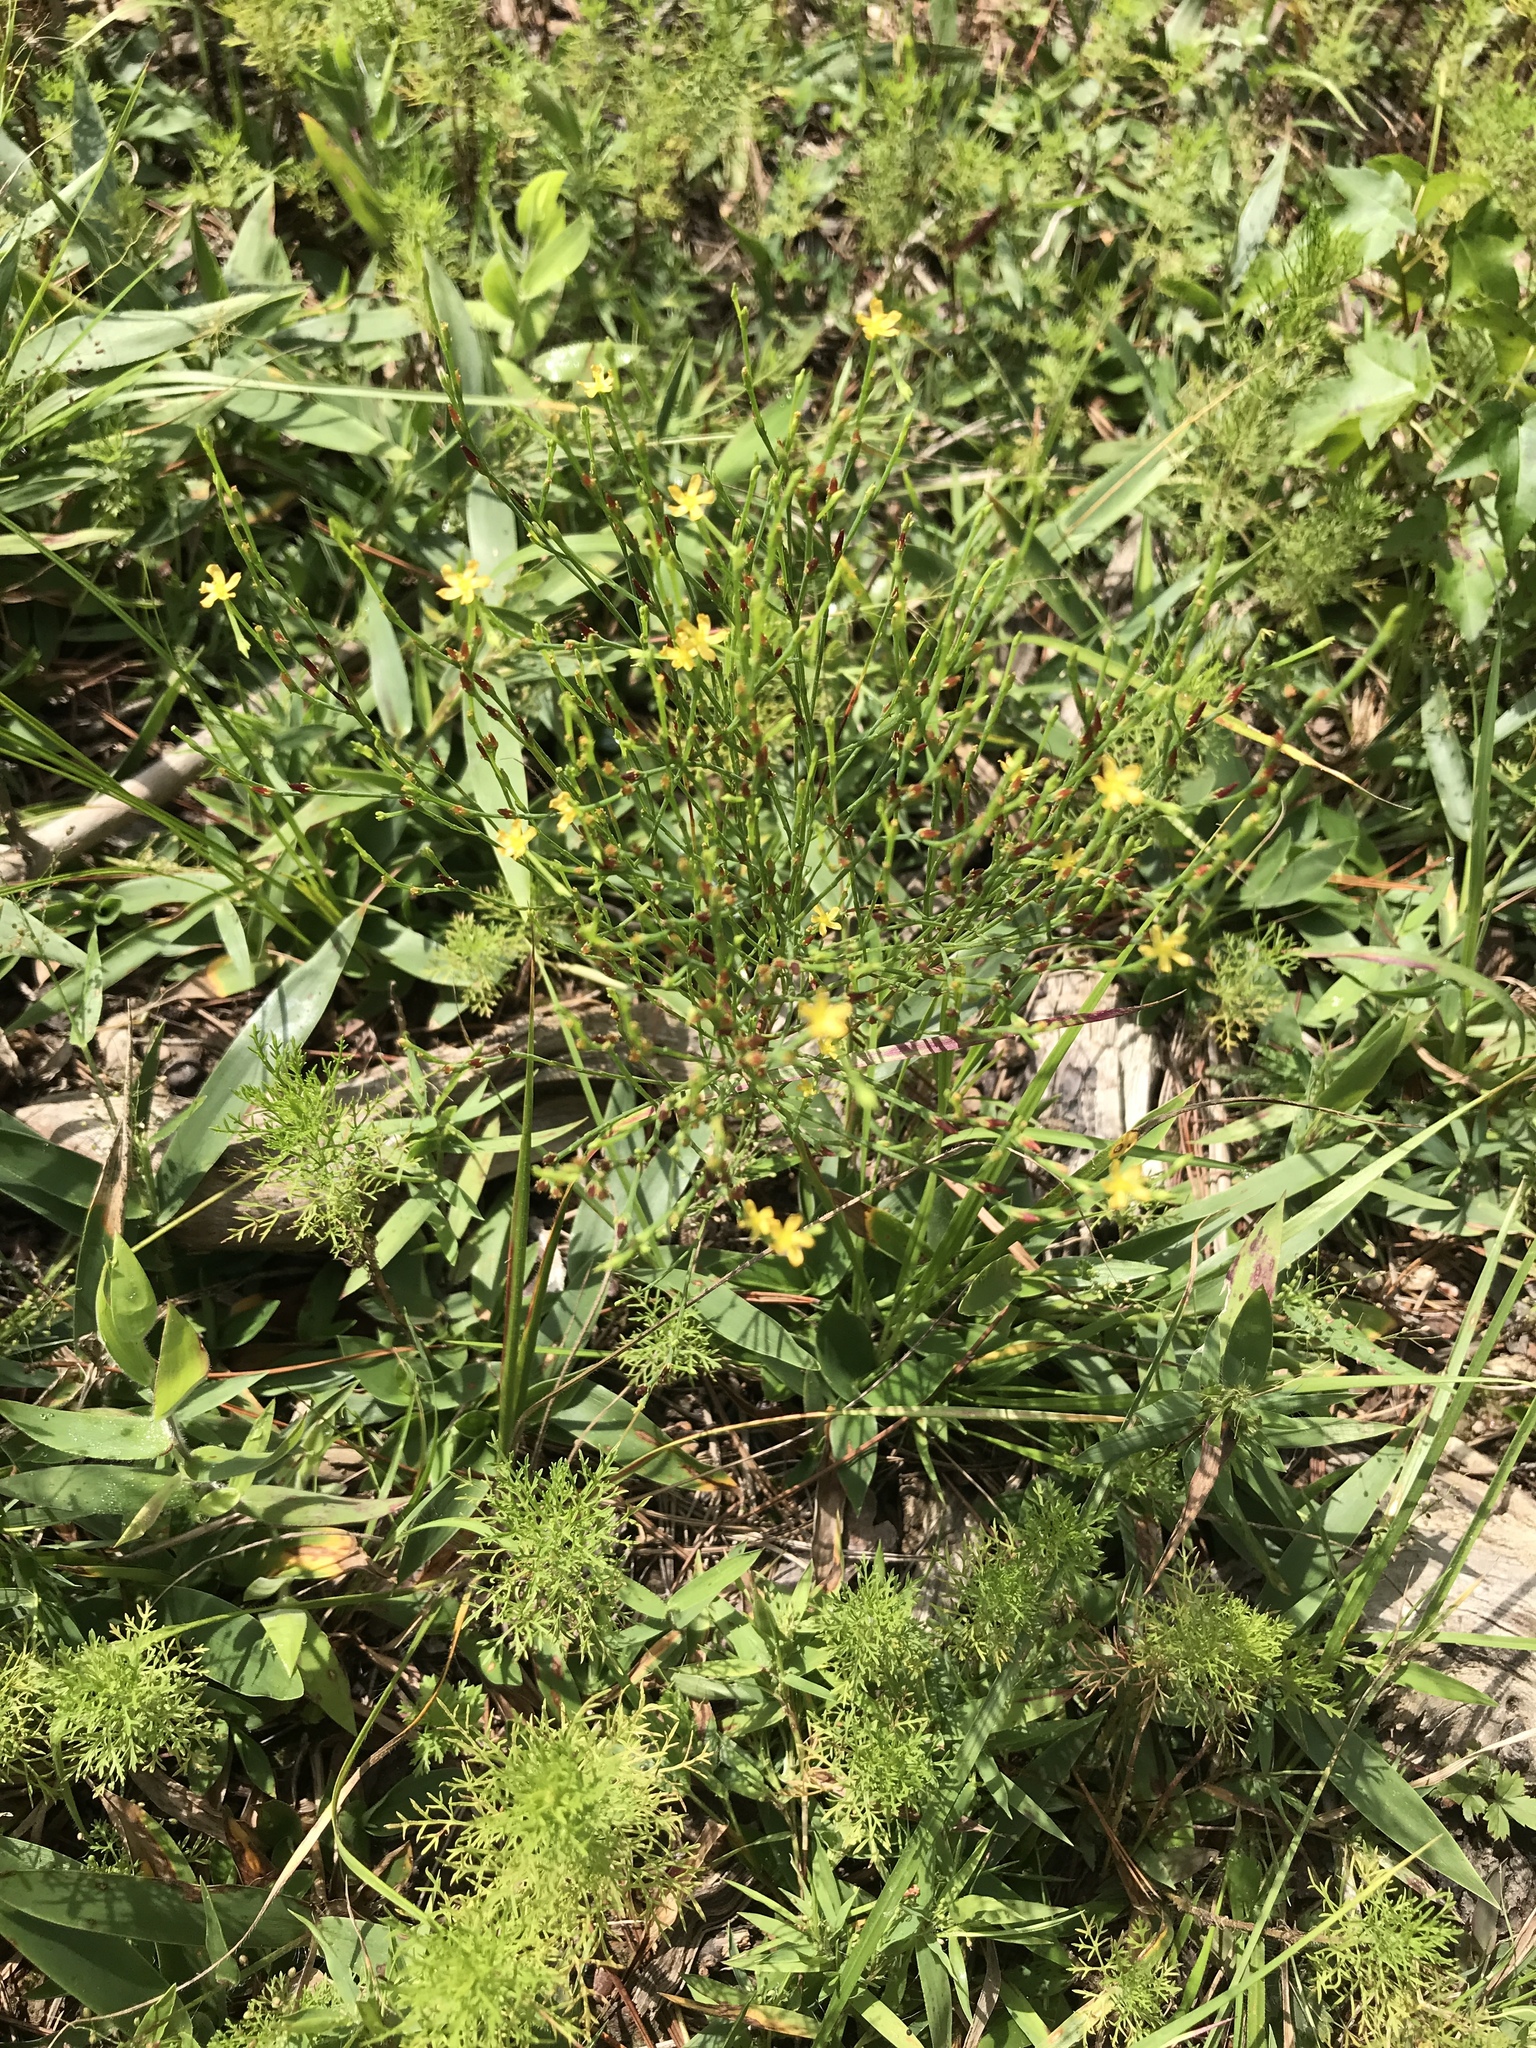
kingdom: Plantae
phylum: Tracheophyta
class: Magnoliopsida
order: Malpighiales
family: Hypericaceae
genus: Hypericum
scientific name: Hypericum gentianoides
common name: Gentian-leaved st. john's-wort
